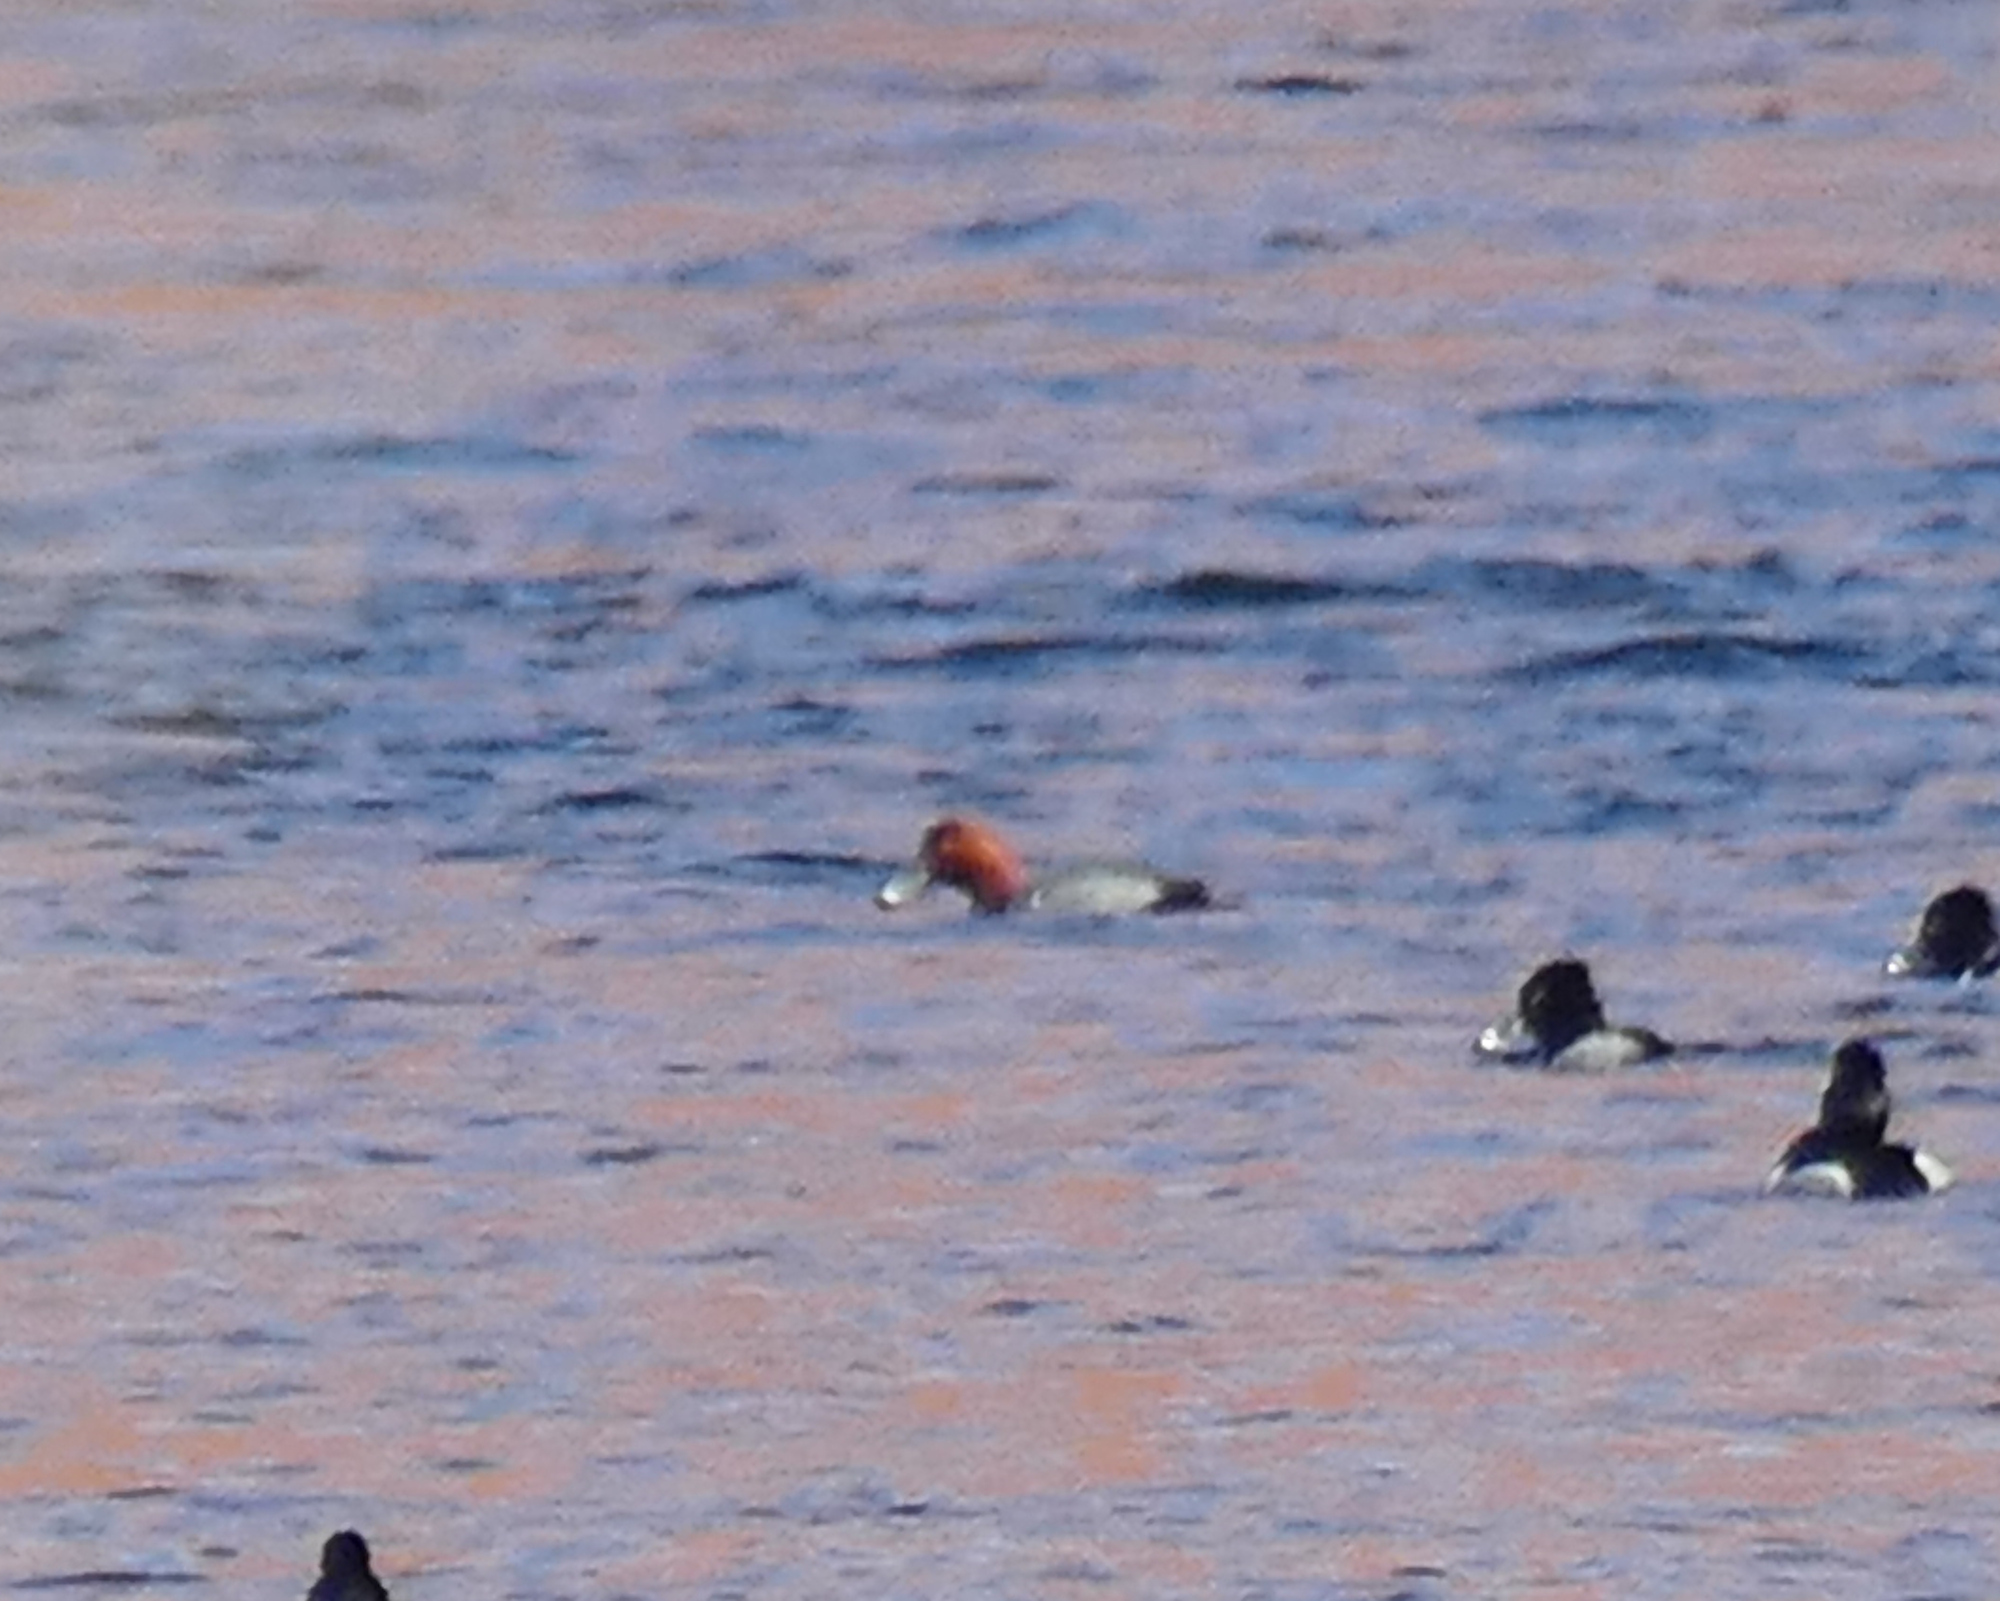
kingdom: Animalia
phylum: Chordata
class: Aves
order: Anseriformes
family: Anatidae
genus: Aythya
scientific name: Aythya americana
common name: Redhead
